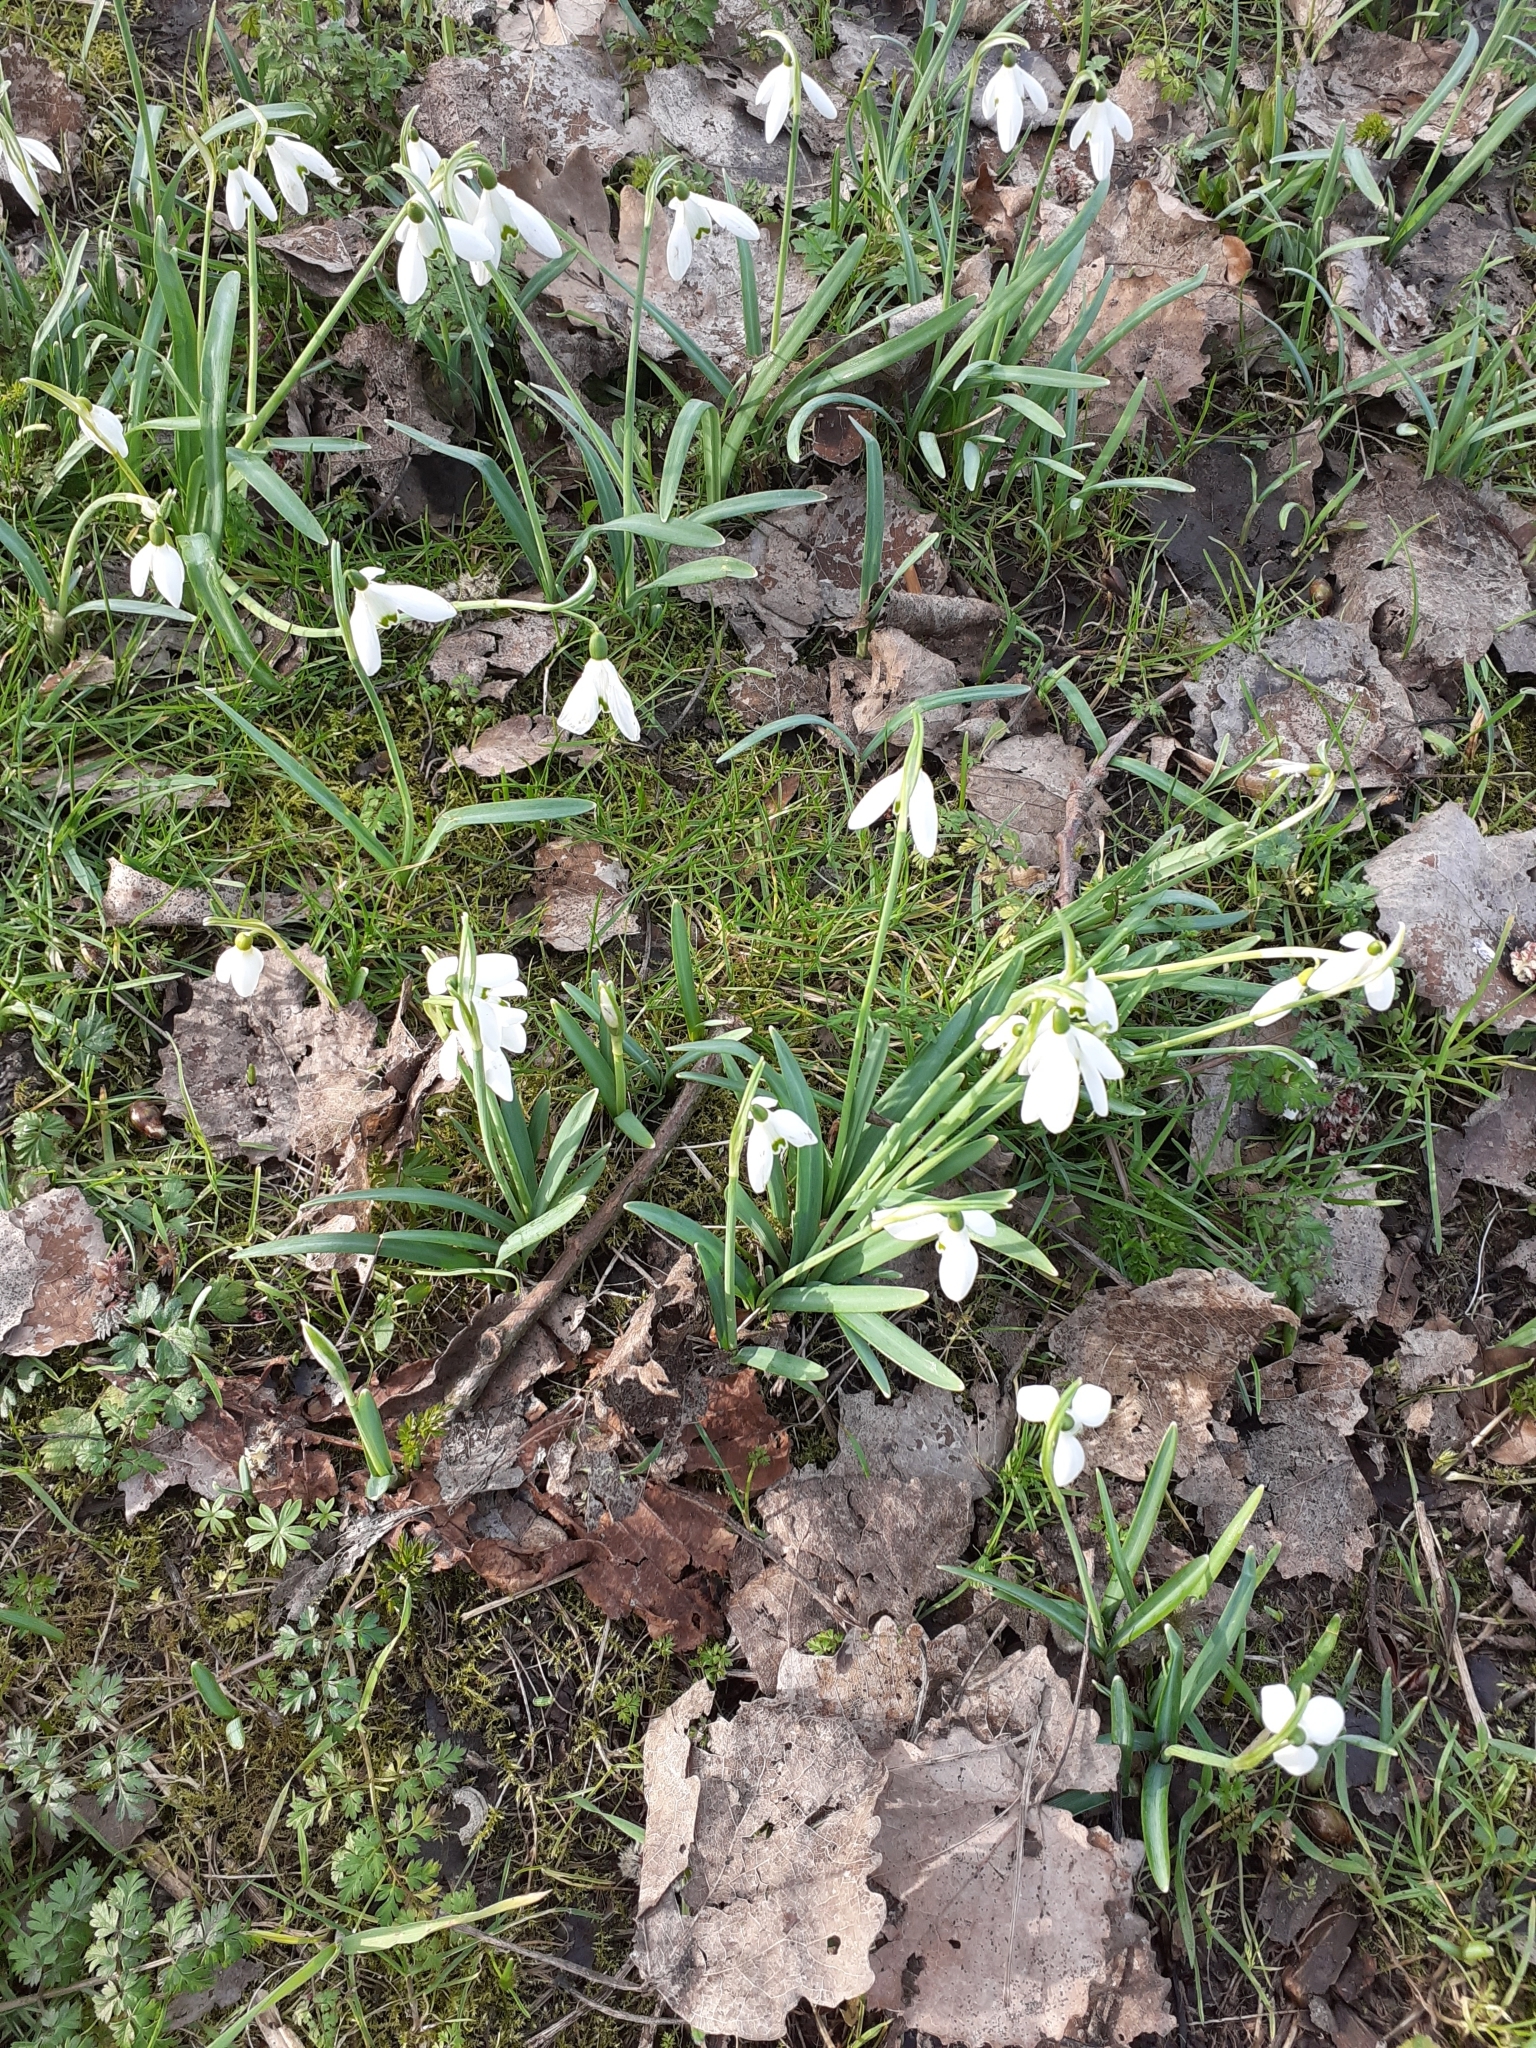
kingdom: Plantae
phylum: Tracheophyta
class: Liliopsida
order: Asparagales
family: Amaryllidaceae
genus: Galanthus
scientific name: Galanthus nivalis
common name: Snowdrop
